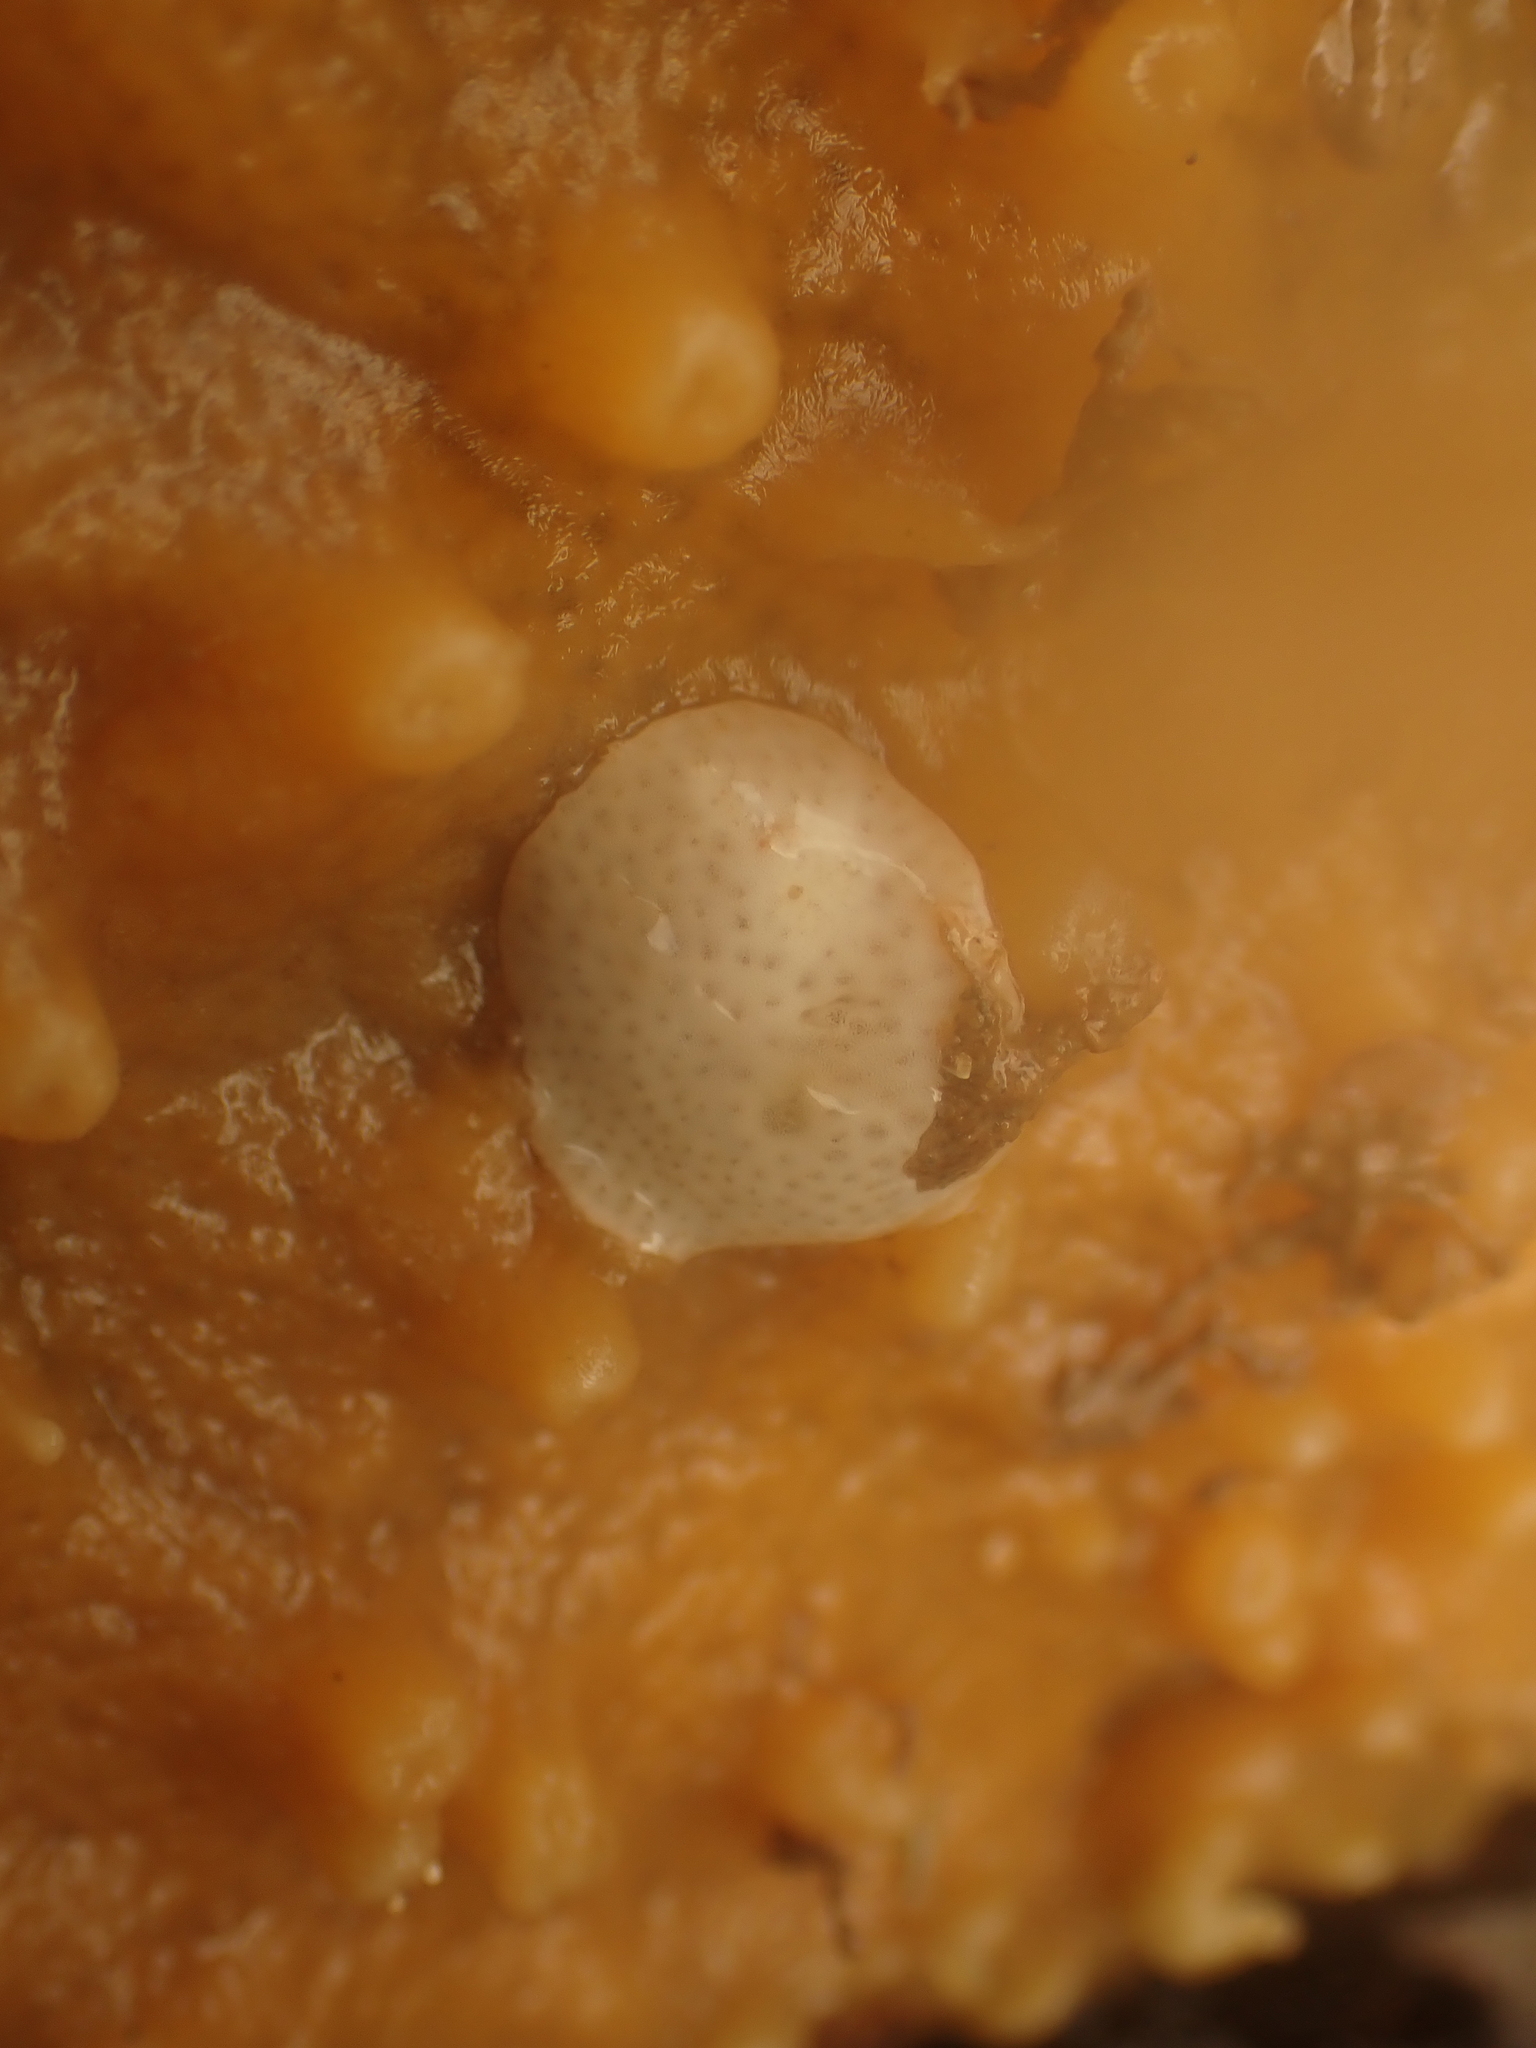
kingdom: Animalia
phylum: Chordata
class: Ascidiacea
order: Aplousobranchia
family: Didemnidae
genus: Didemnum
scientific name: Didemnum albidum
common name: Northern white crust
